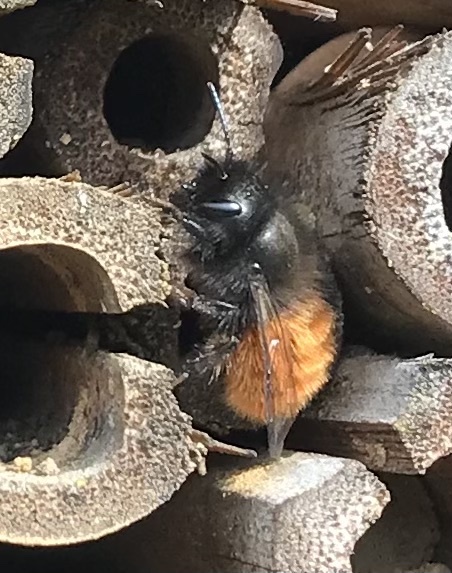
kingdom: Animalia
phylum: Arthropoda
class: Insecta
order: Hymenoptera
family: Megachilidae
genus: Osmia
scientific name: Osmia cornuta
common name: Mason bee
